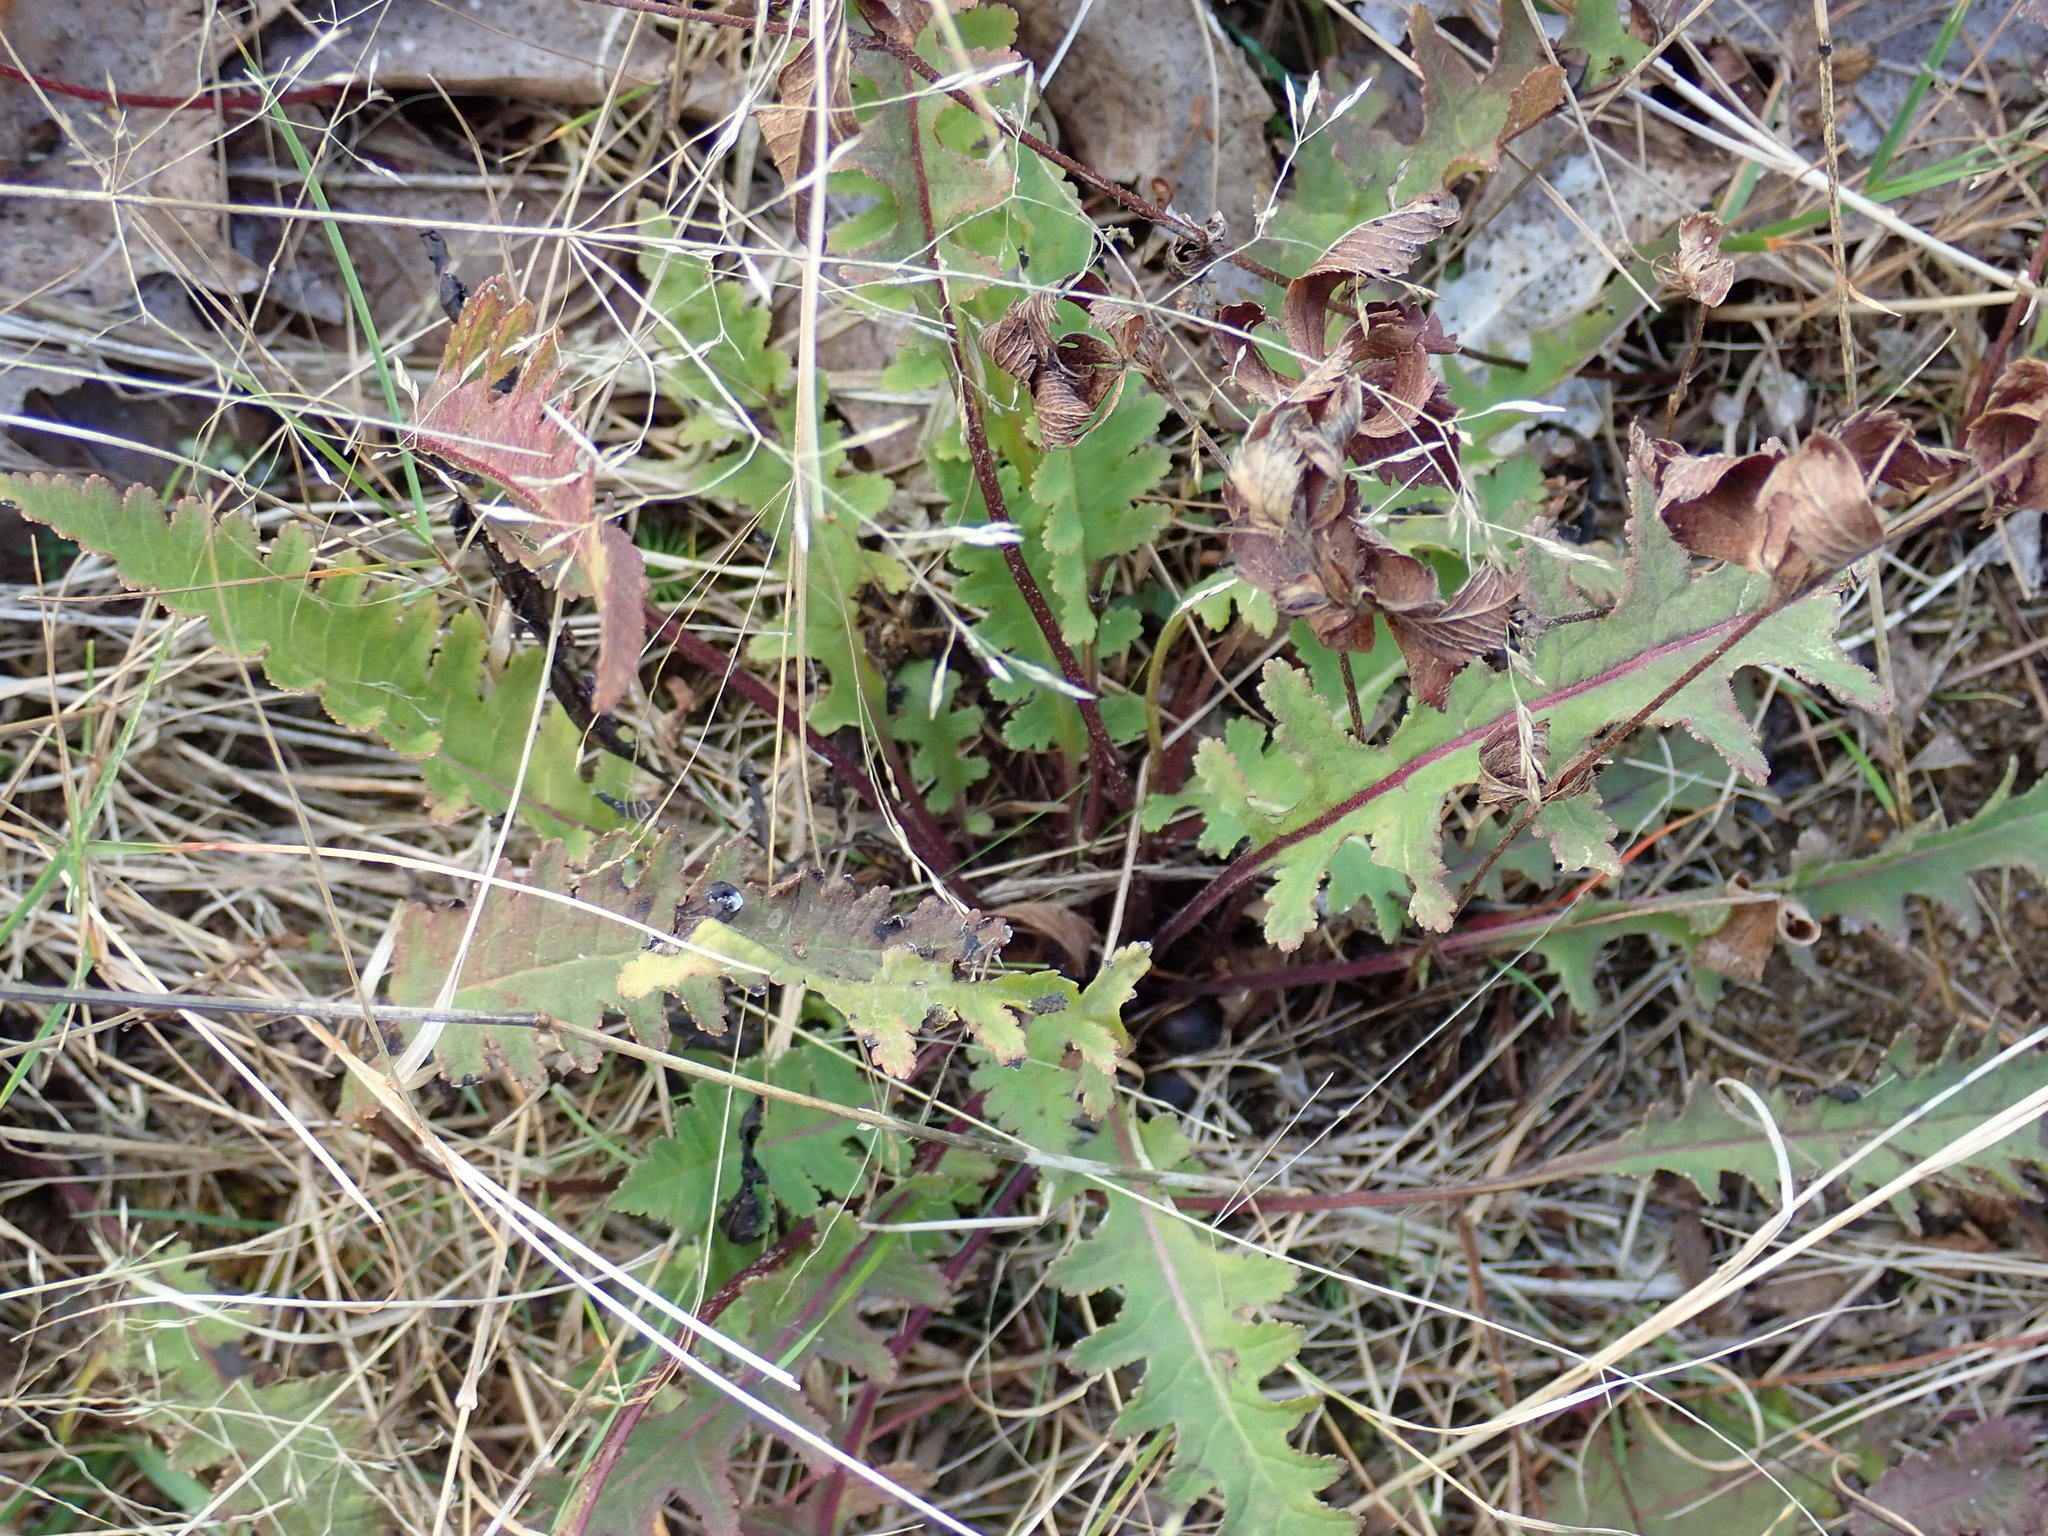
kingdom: Plantae
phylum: Tracheophyta
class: Magnoliopsida
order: Lamiales
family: Orobanchaceae
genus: Pedicularis
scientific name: Pedicularis canadensis
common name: Early lousewort
